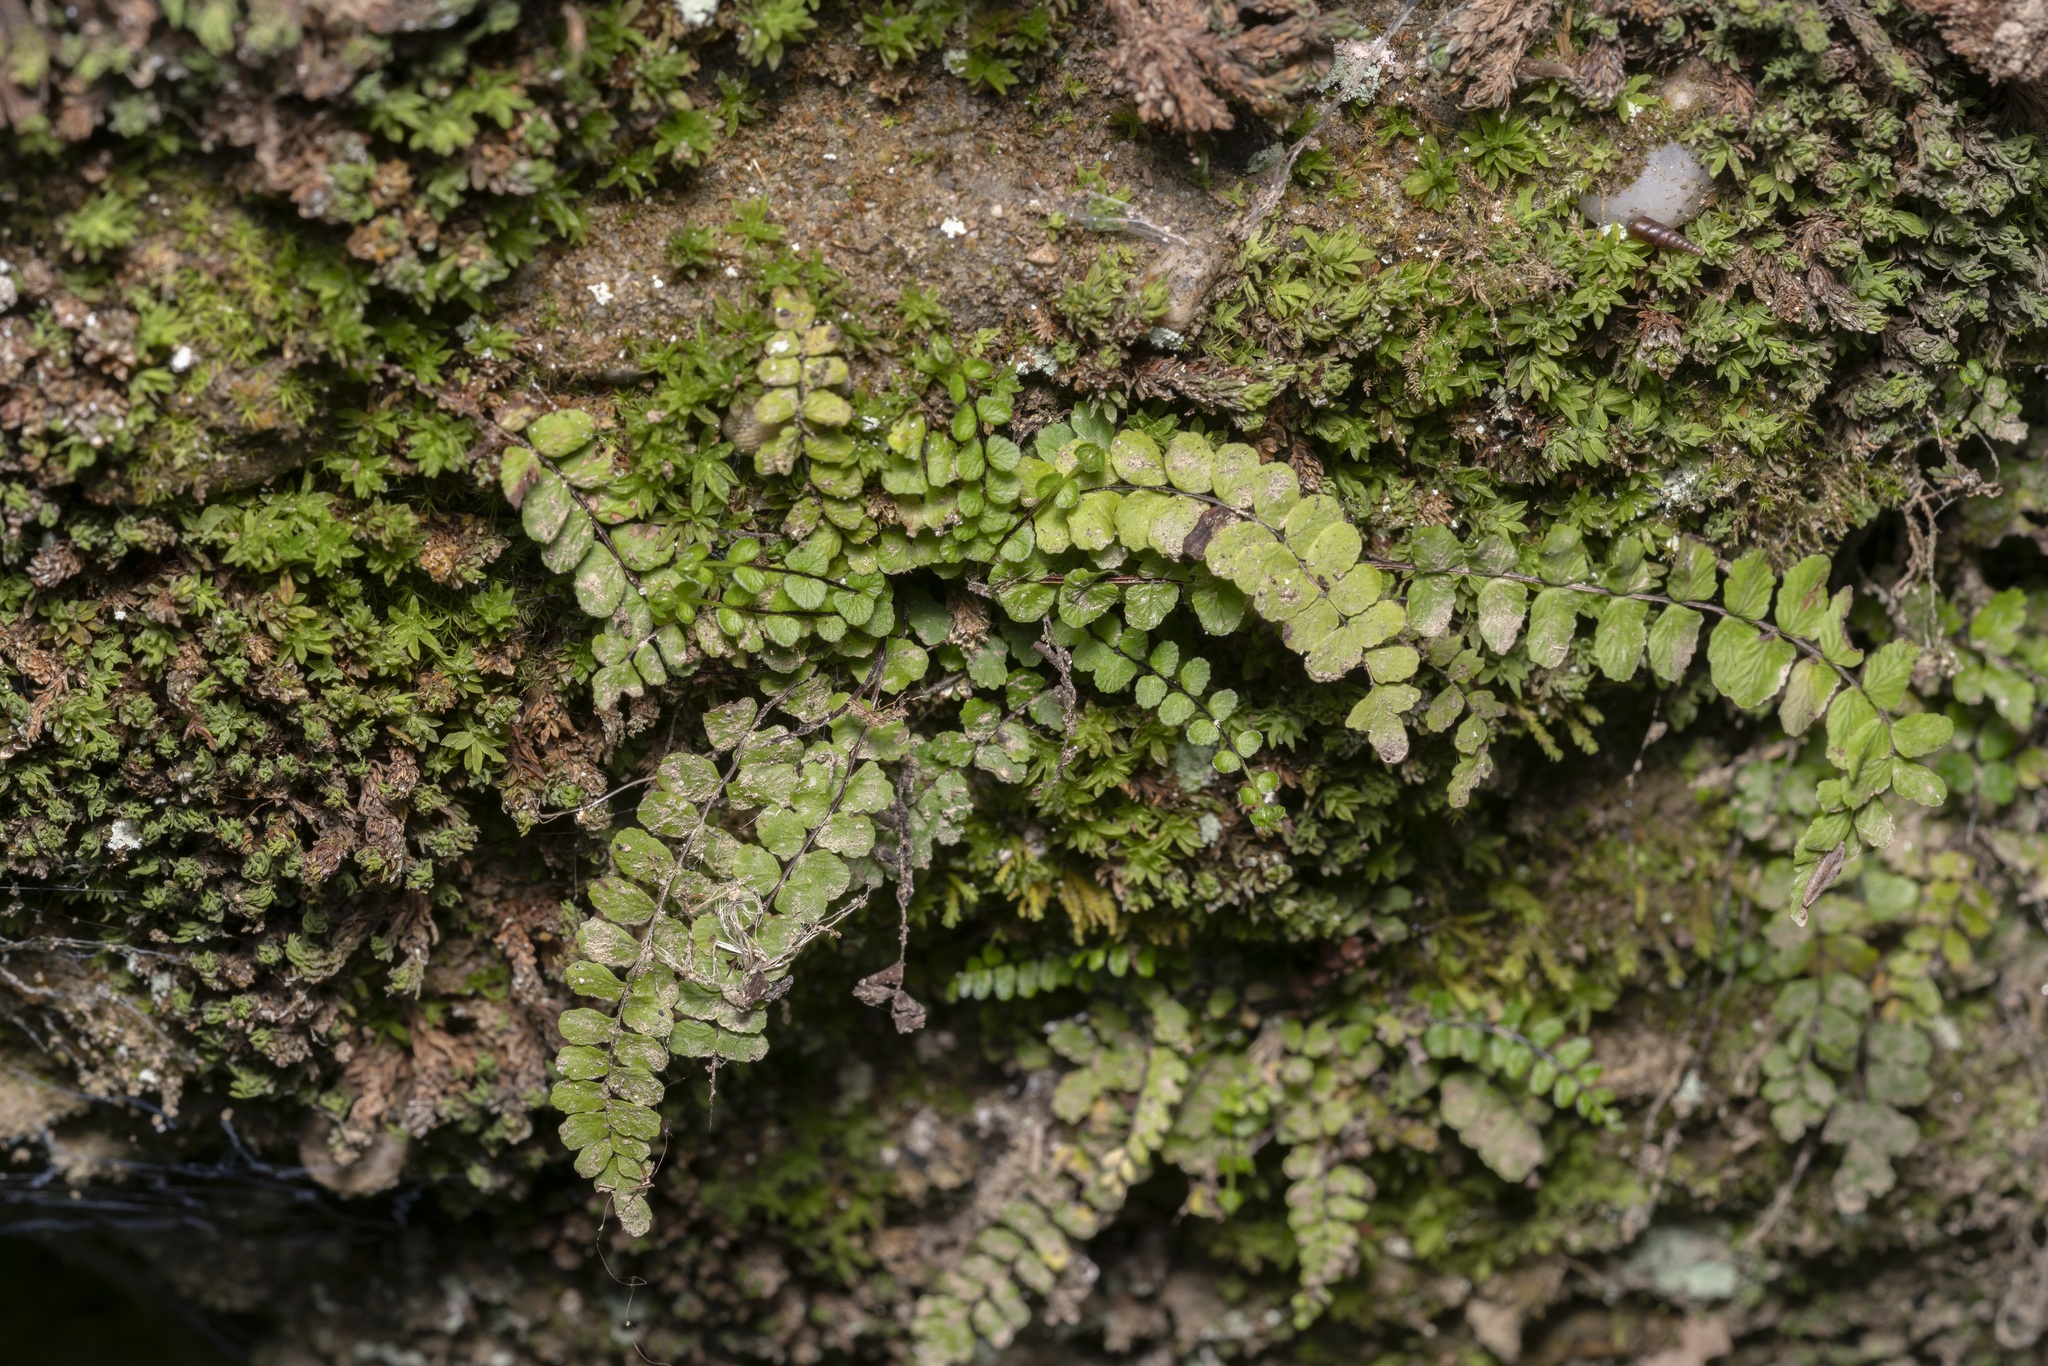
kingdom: Plantae
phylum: Tracheophyta
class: Polypodiopsida
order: Polypodiales
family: Aspleniaceae
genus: Asplenium
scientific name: Asplenium trichomanes
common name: Maidenhair spleenwort
